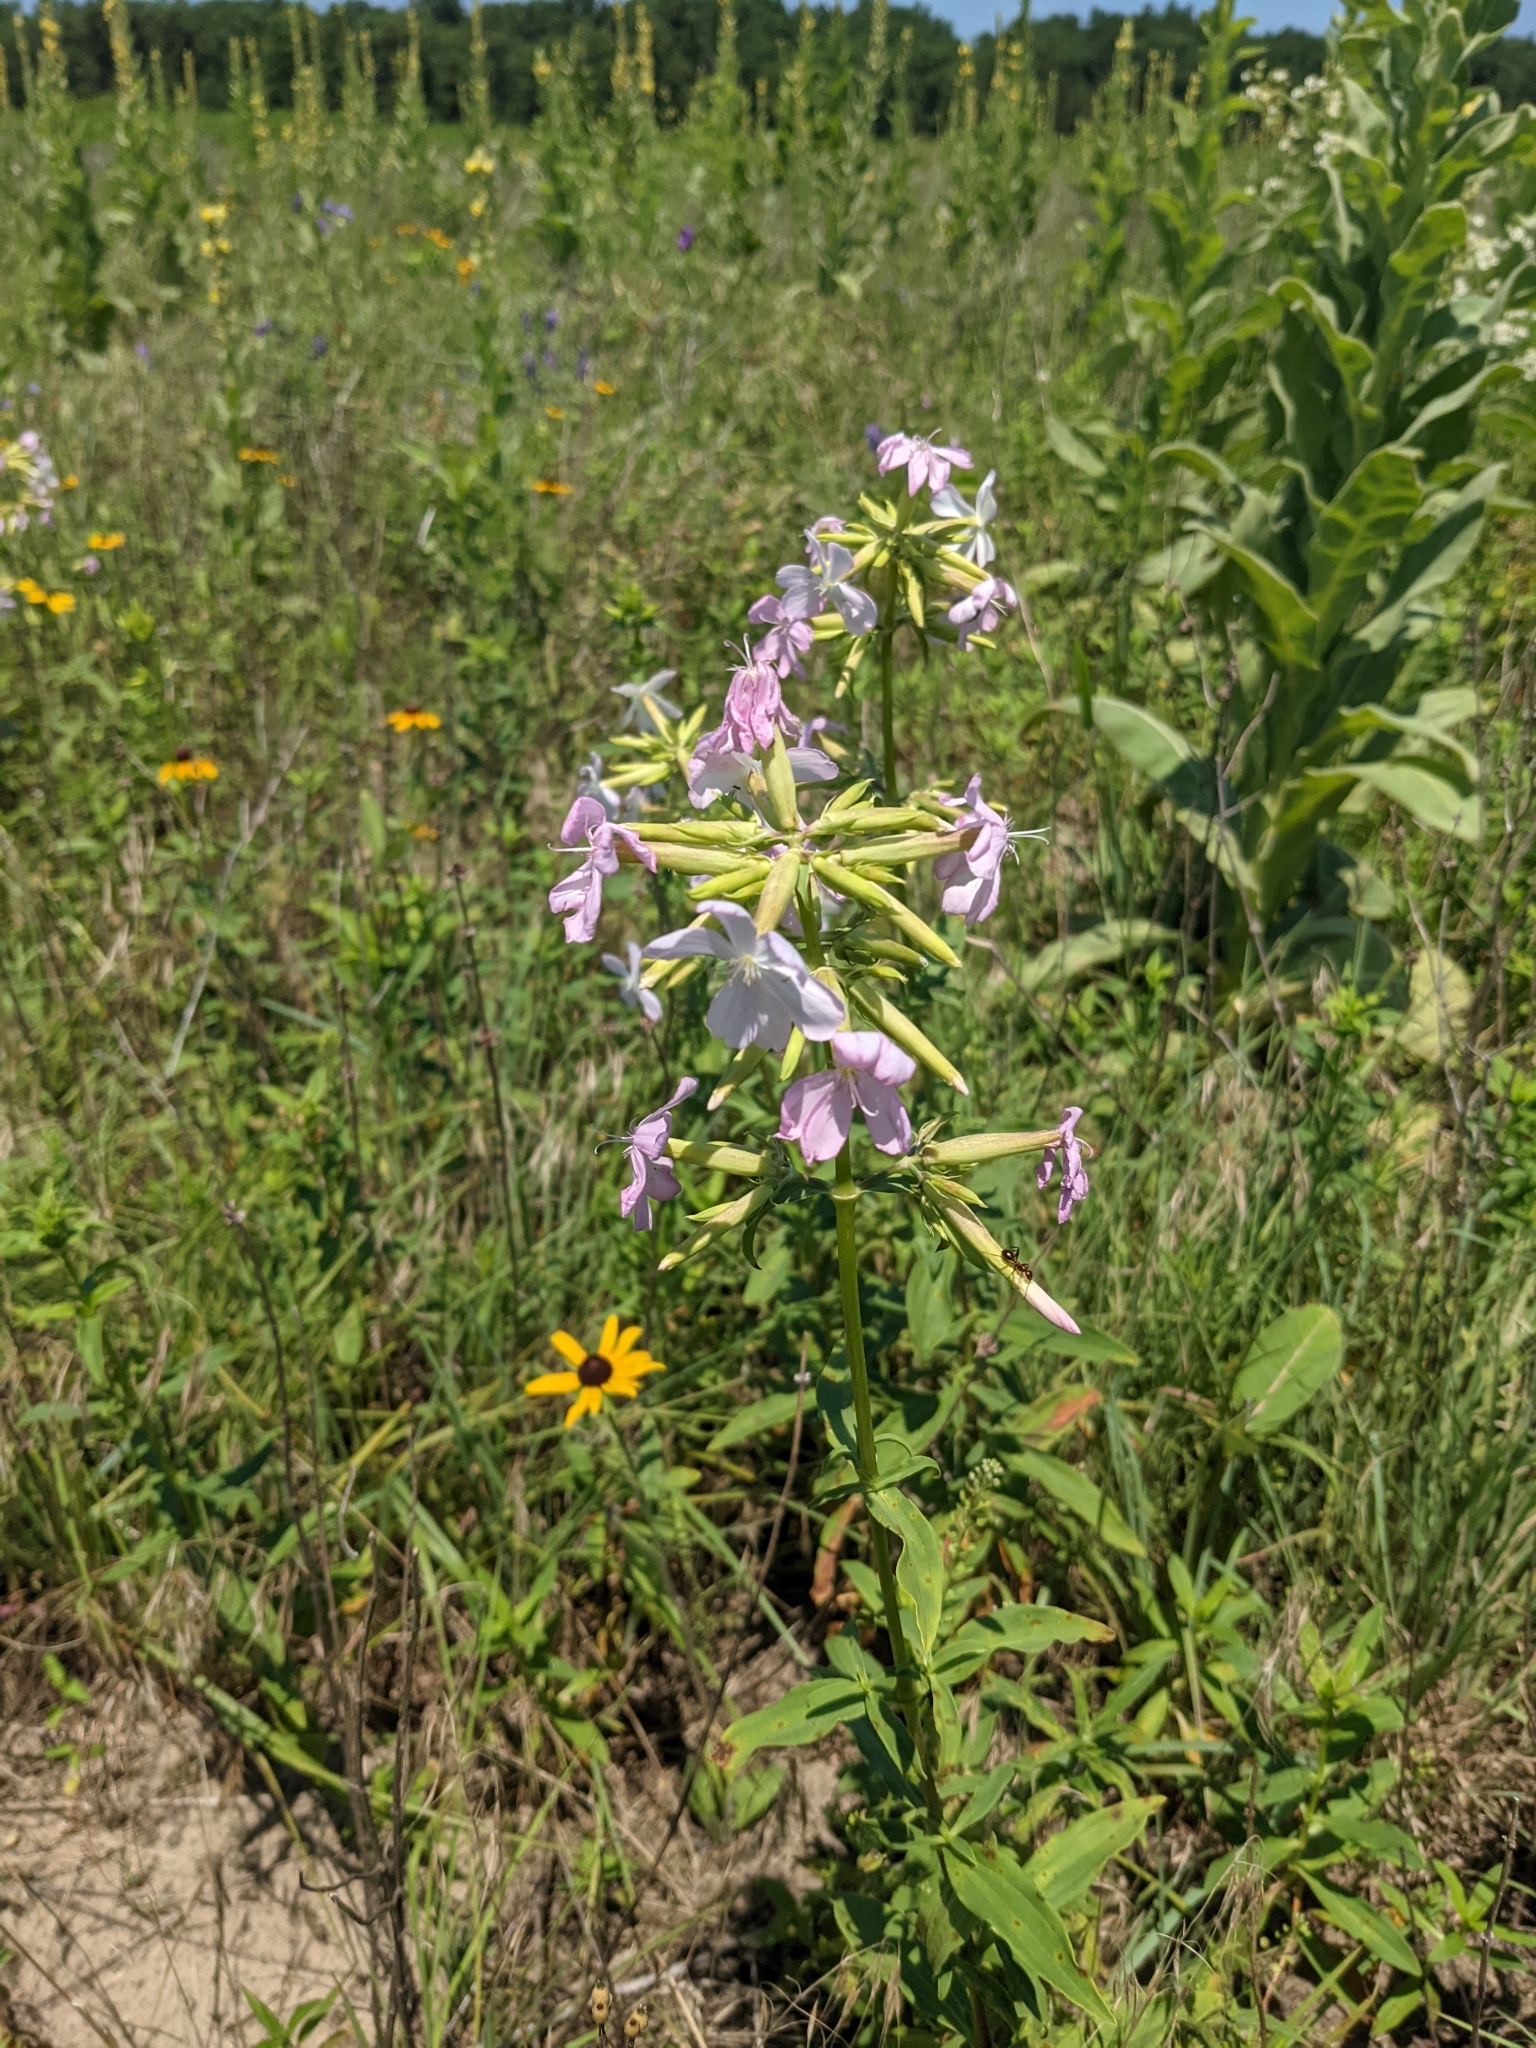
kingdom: Plantae
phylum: Tracheophyta
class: Magnoliopsida
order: Caryophyllales
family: Caryophyllaceae
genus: Saponaria
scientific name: Saponaria officinalis
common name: Soapwort
